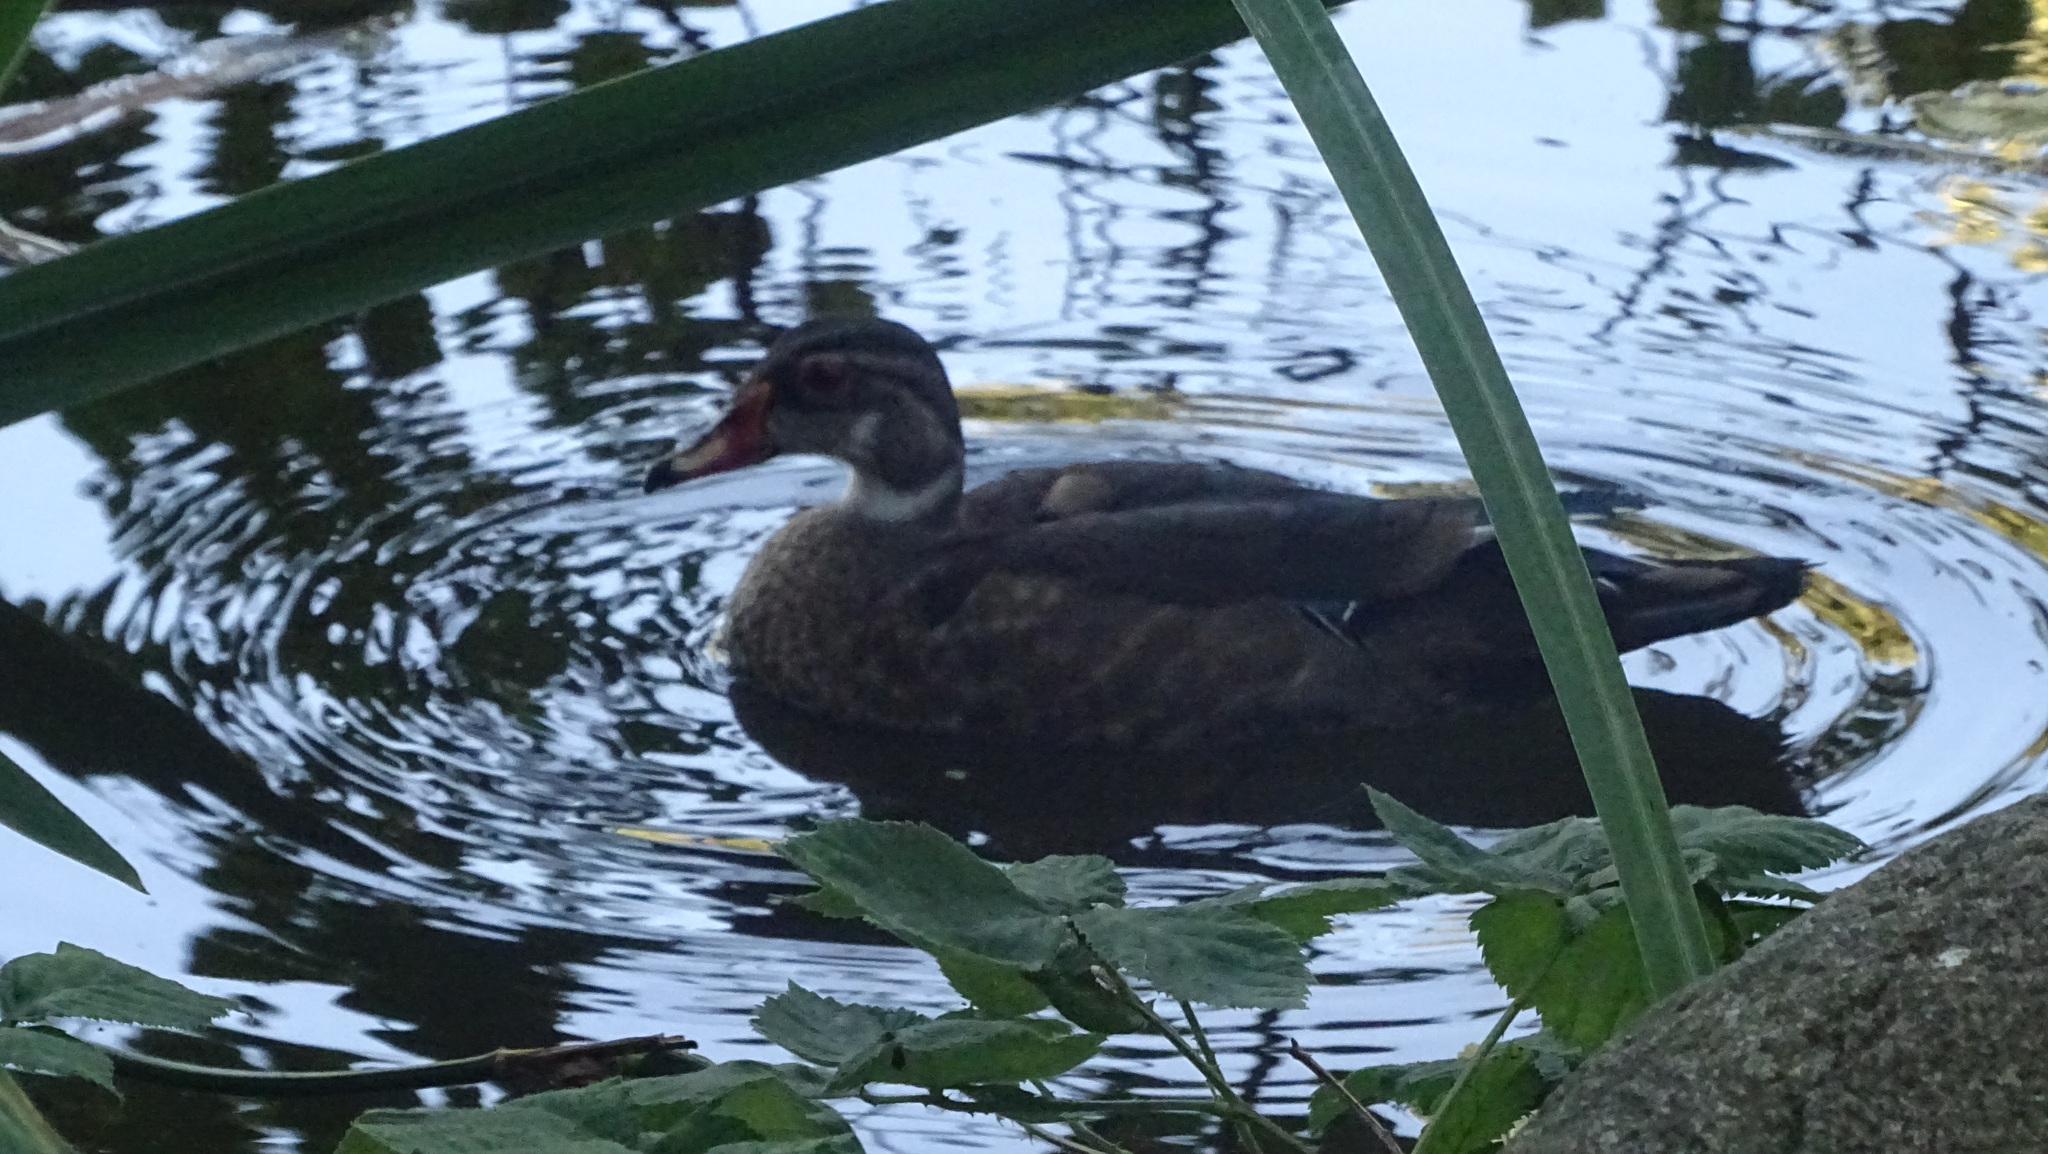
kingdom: Animalia
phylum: Chordata
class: Aves
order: Anseriformes
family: Anatidae
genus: Aix
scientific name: Aix sponsa
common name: Wood duck
